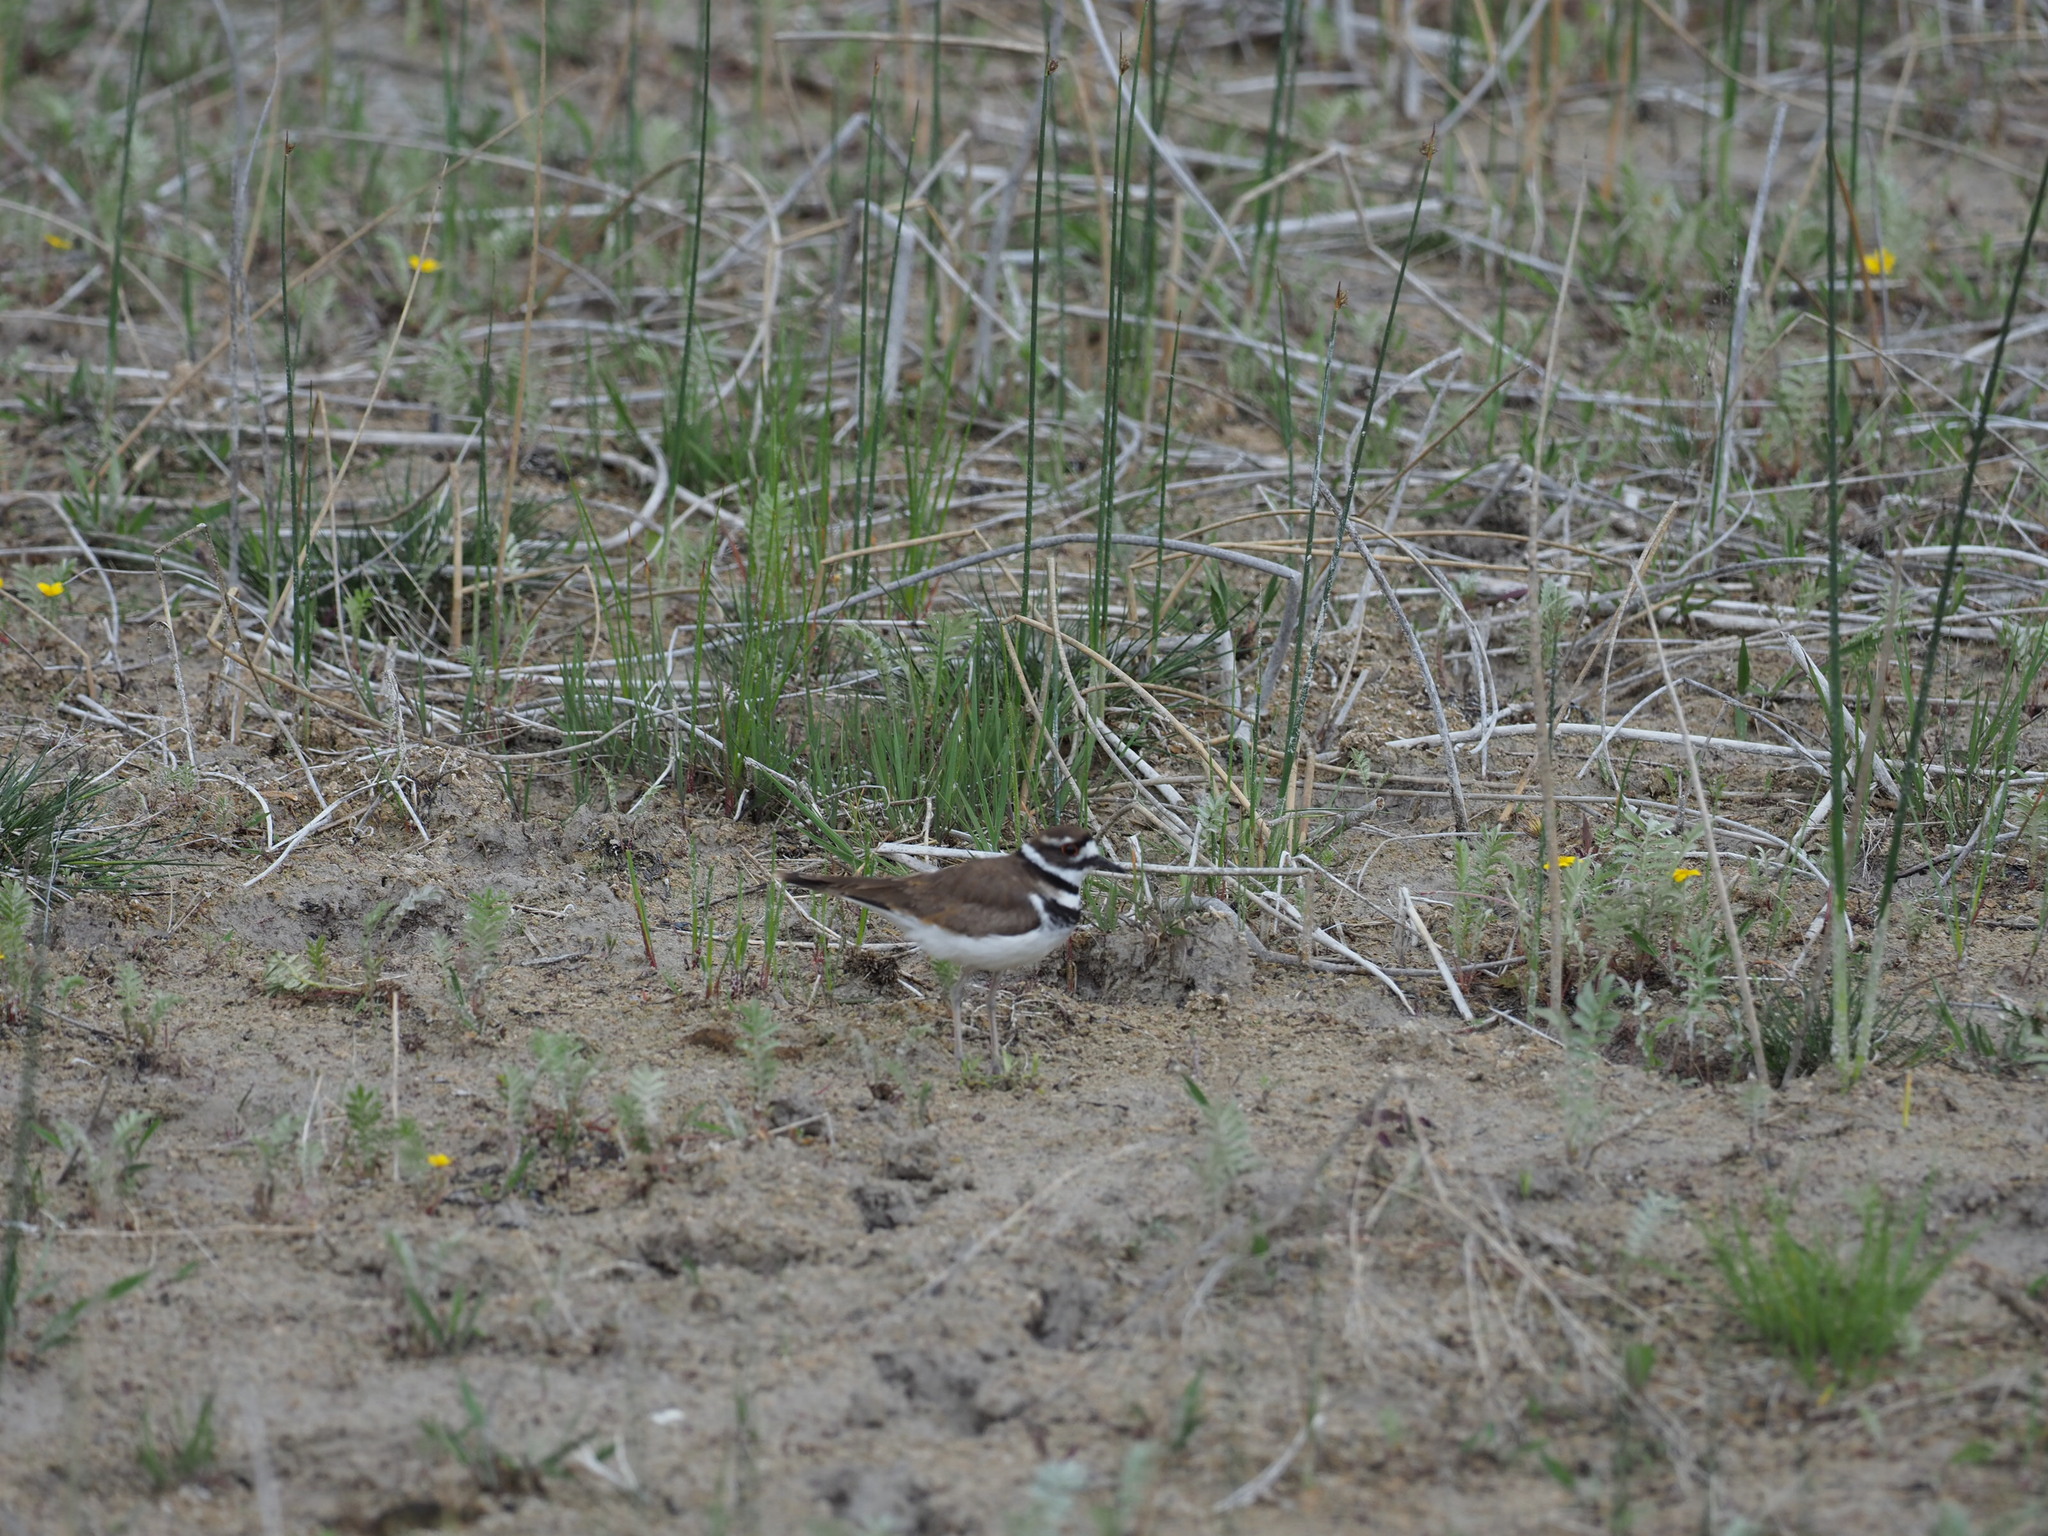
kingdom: Animalia
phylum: Chordata
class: Aves
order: Charadriiformes
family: Charadriidae
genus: Charadrius
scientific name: Charadrius vociferus
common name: Killdeer
